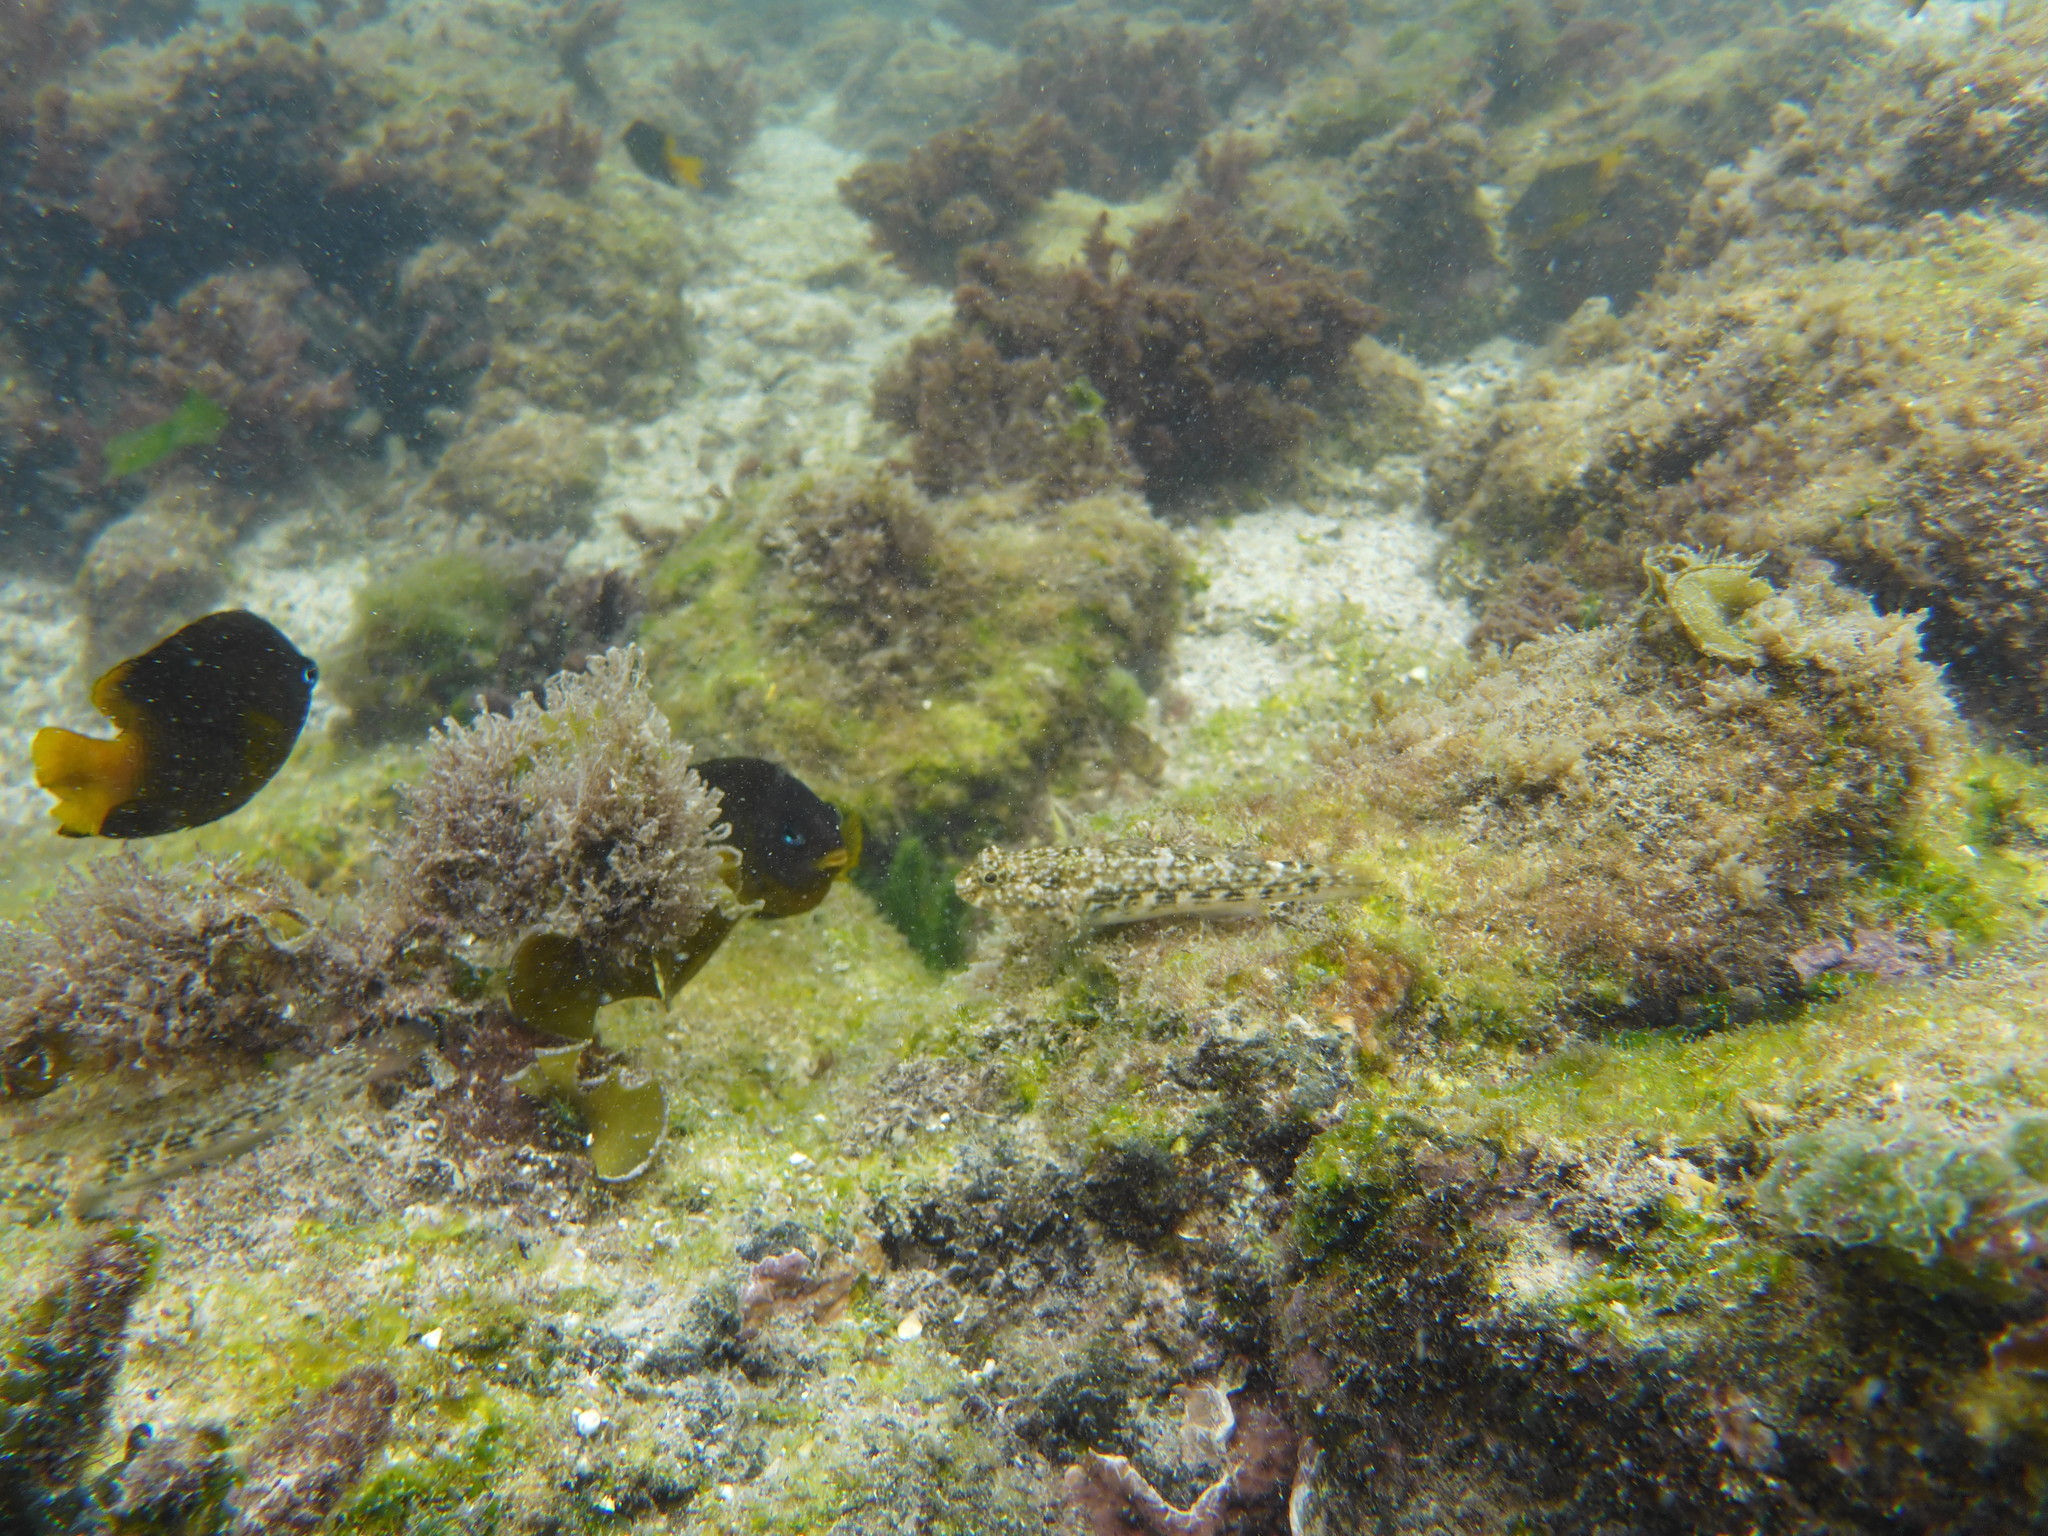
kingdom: Animalia
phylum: Chordata
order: Perciformes
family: Labrisomidae
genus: Malacoctenus
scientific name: Malacoctenus tetranemus
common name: Chameleon clinid
